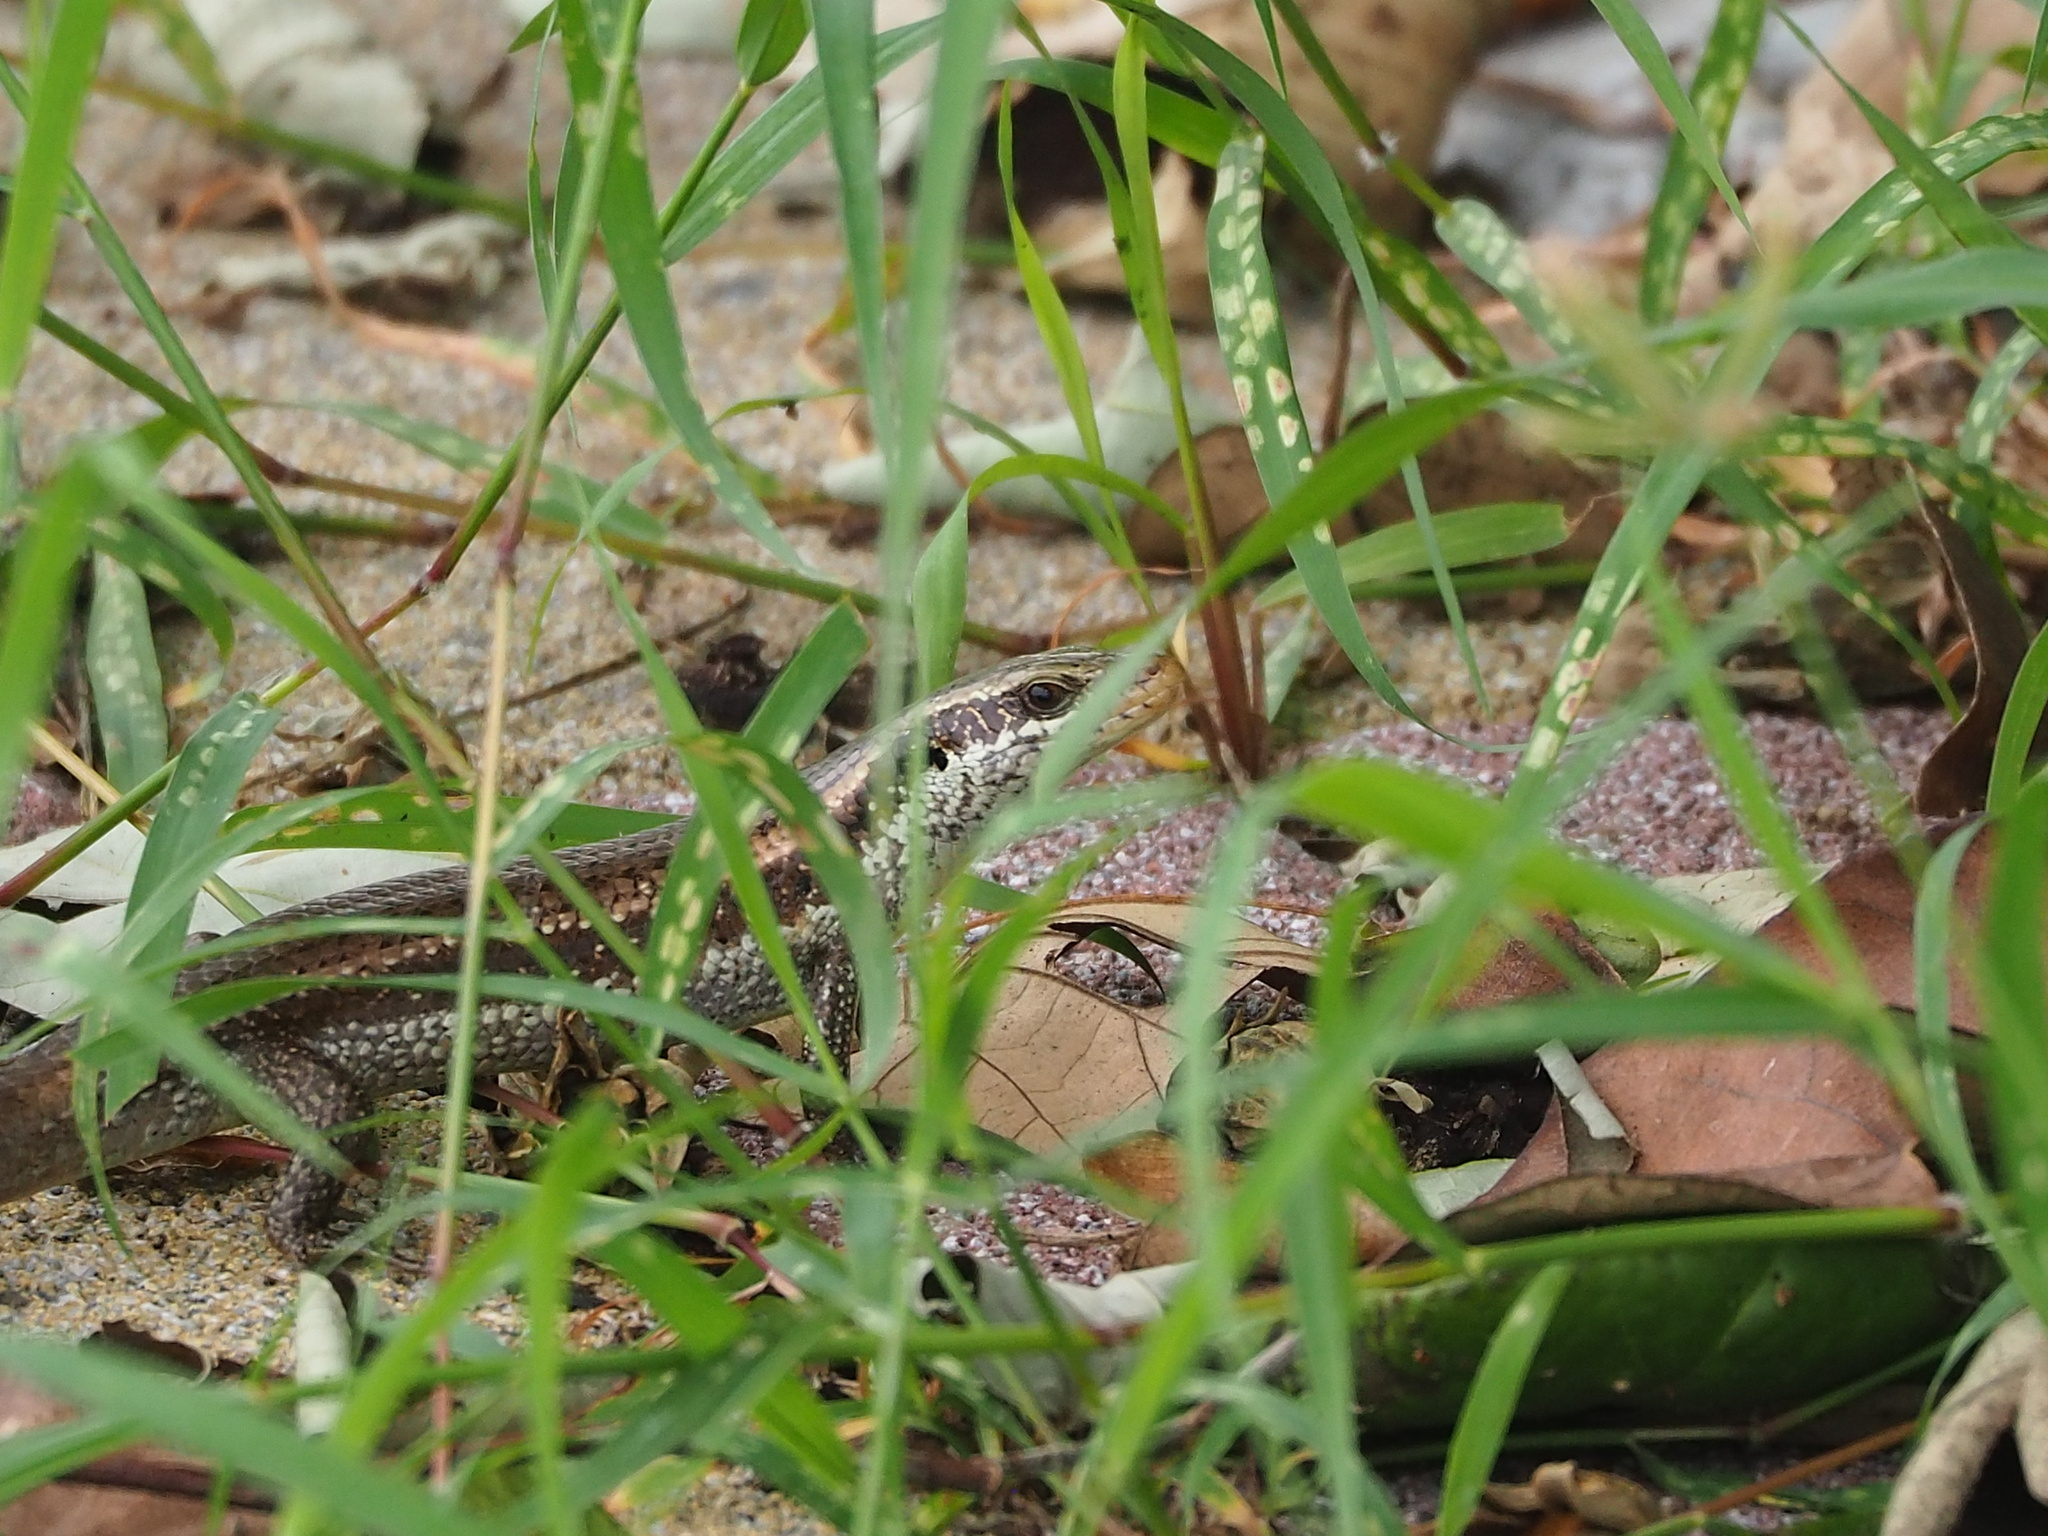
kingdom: Animalia
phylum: Chordata
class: Squamata
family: Scincidae
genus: Eutropis
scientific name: Eutropis longicaudata
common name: Long-tailed sun skink
